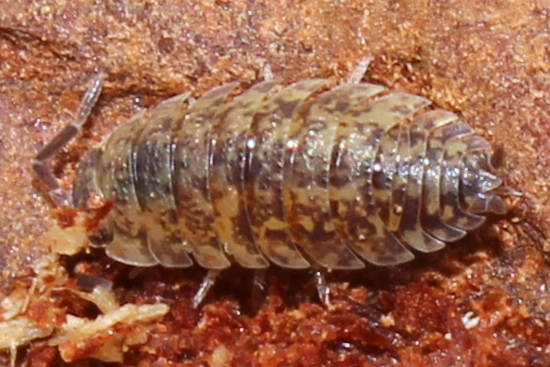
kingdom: Animalia
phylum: Arthropoda
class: Malacostraca
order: Isopoda
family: Porcellionidae
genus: Porcellio
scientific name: Porcellio scaber
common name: Common rough woodlouse
